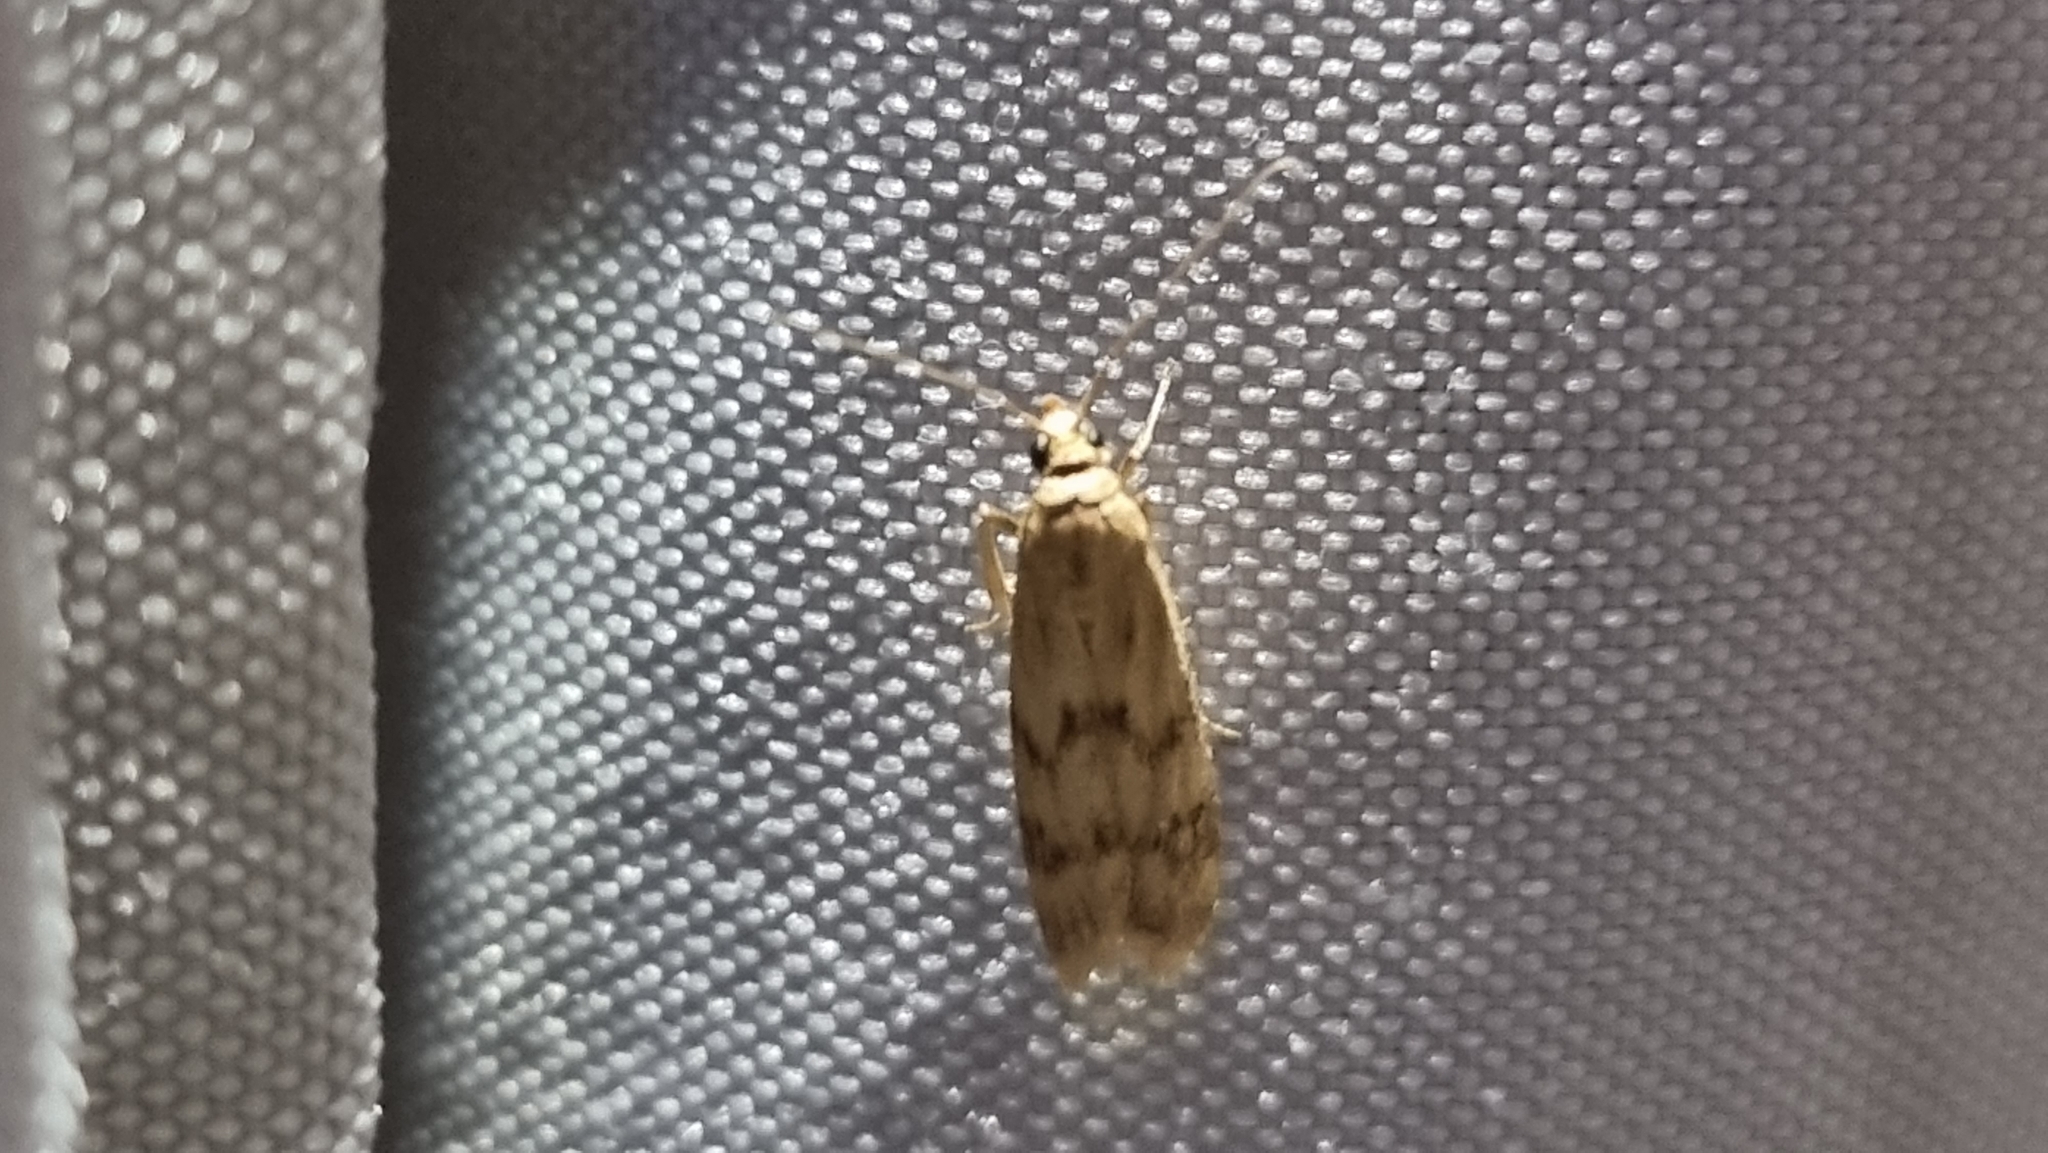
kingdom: Animalia
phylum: Arthropoda
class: Insecta
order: Lepidoptera
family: Pyralidae
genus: Homoeosoma
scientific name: Homoeosoma sinuella
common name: Twin-barred knot-horn
